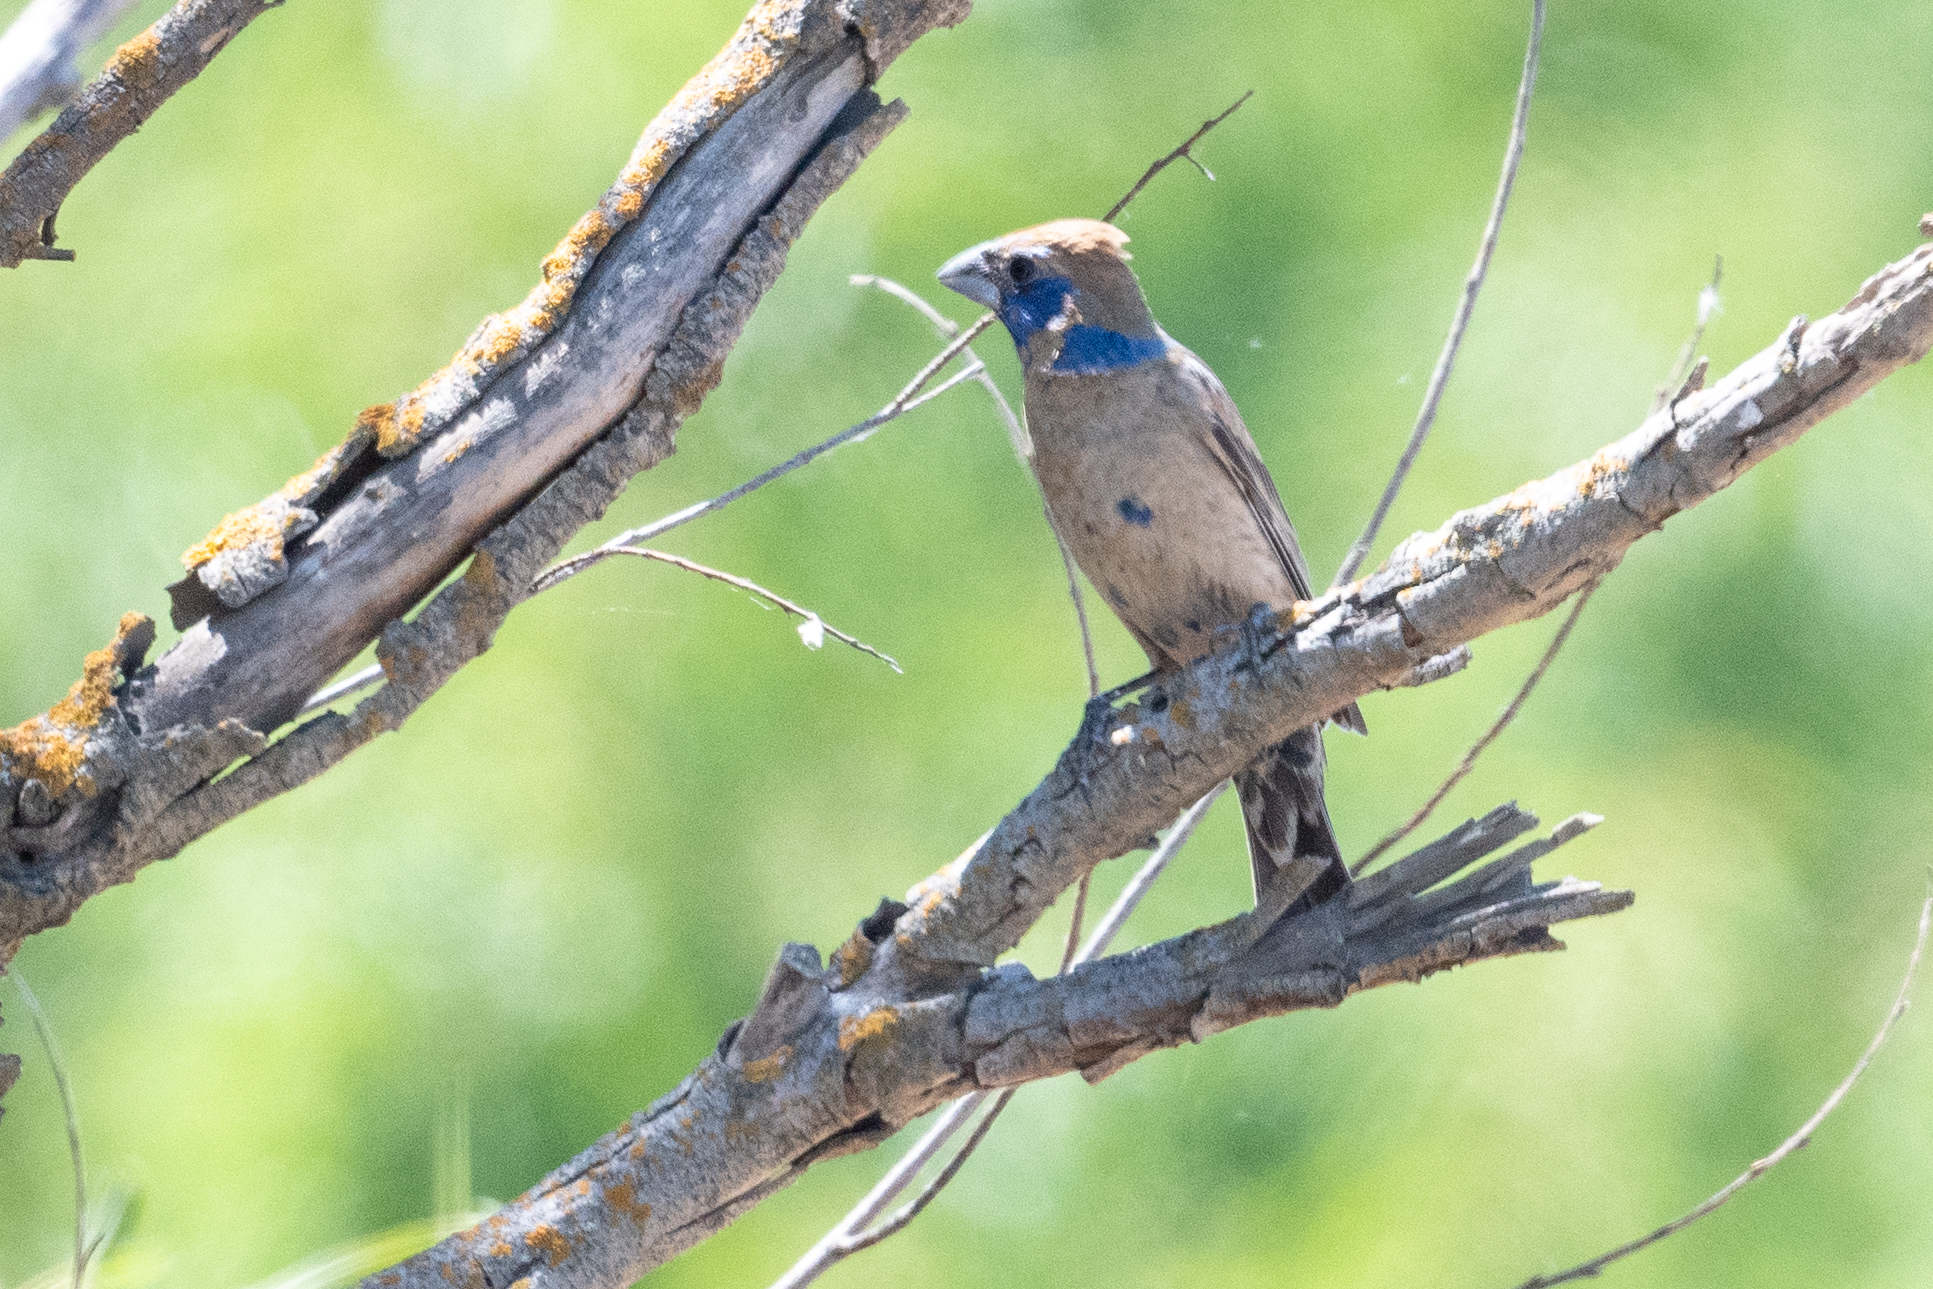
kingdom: Animalia
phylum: Chordata
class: Aves
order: Passeriformes
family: Cardinalidae
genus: Passerina
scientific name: Passerina caerulea
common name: Blue grosbeak
